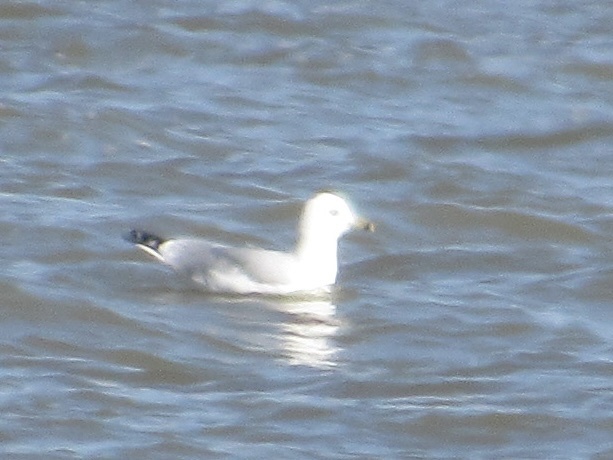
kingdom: Animalia
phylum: Chordata
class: Aves
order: Charadriiformes
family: Laridae
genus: Larus
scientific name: Larus delawarensis
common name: Ring-billed gull
